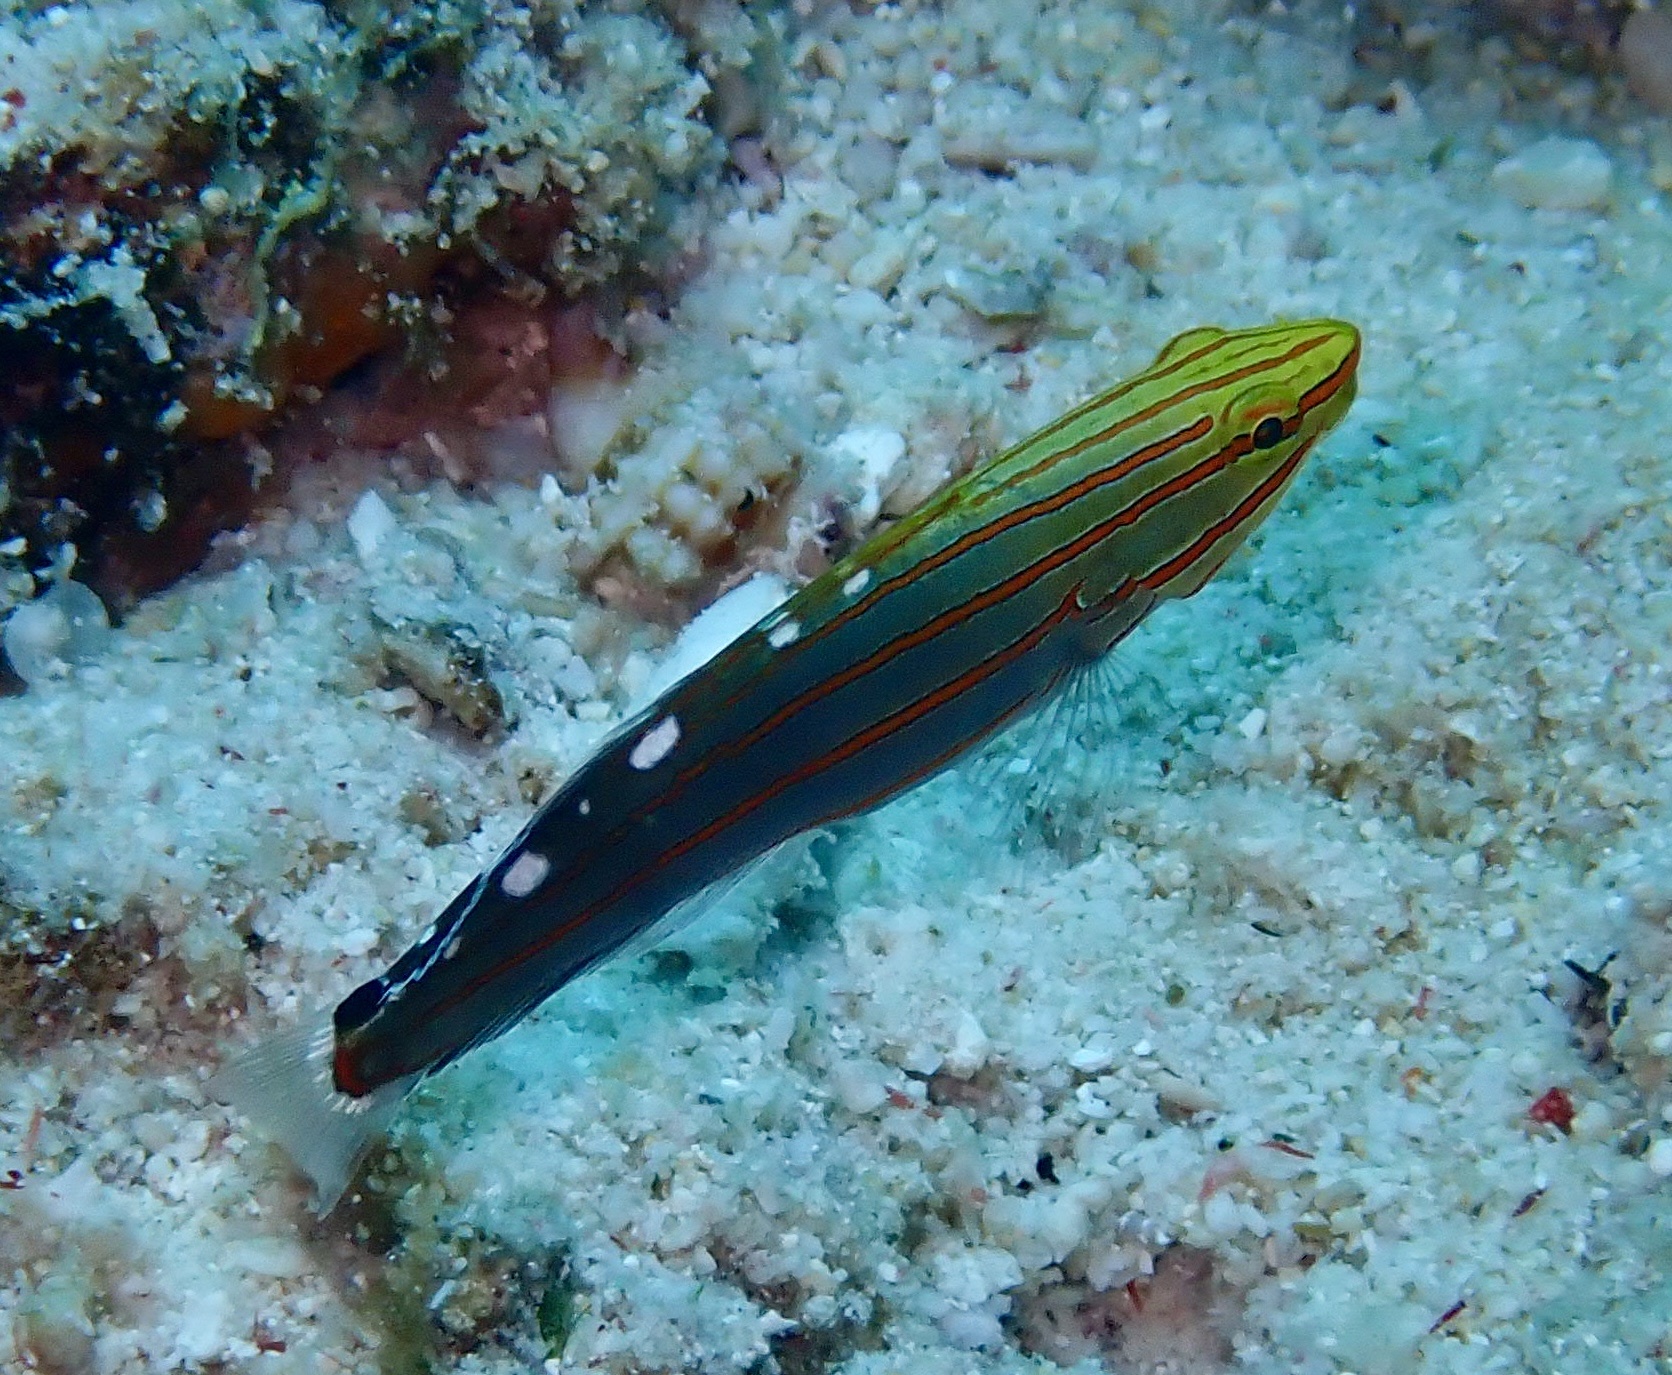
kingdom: Animalia
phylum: Chordata
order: Perciformes
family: Gobiidae
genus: Koumansetta
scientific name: Koumansetta rainfordi
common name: Old glory
